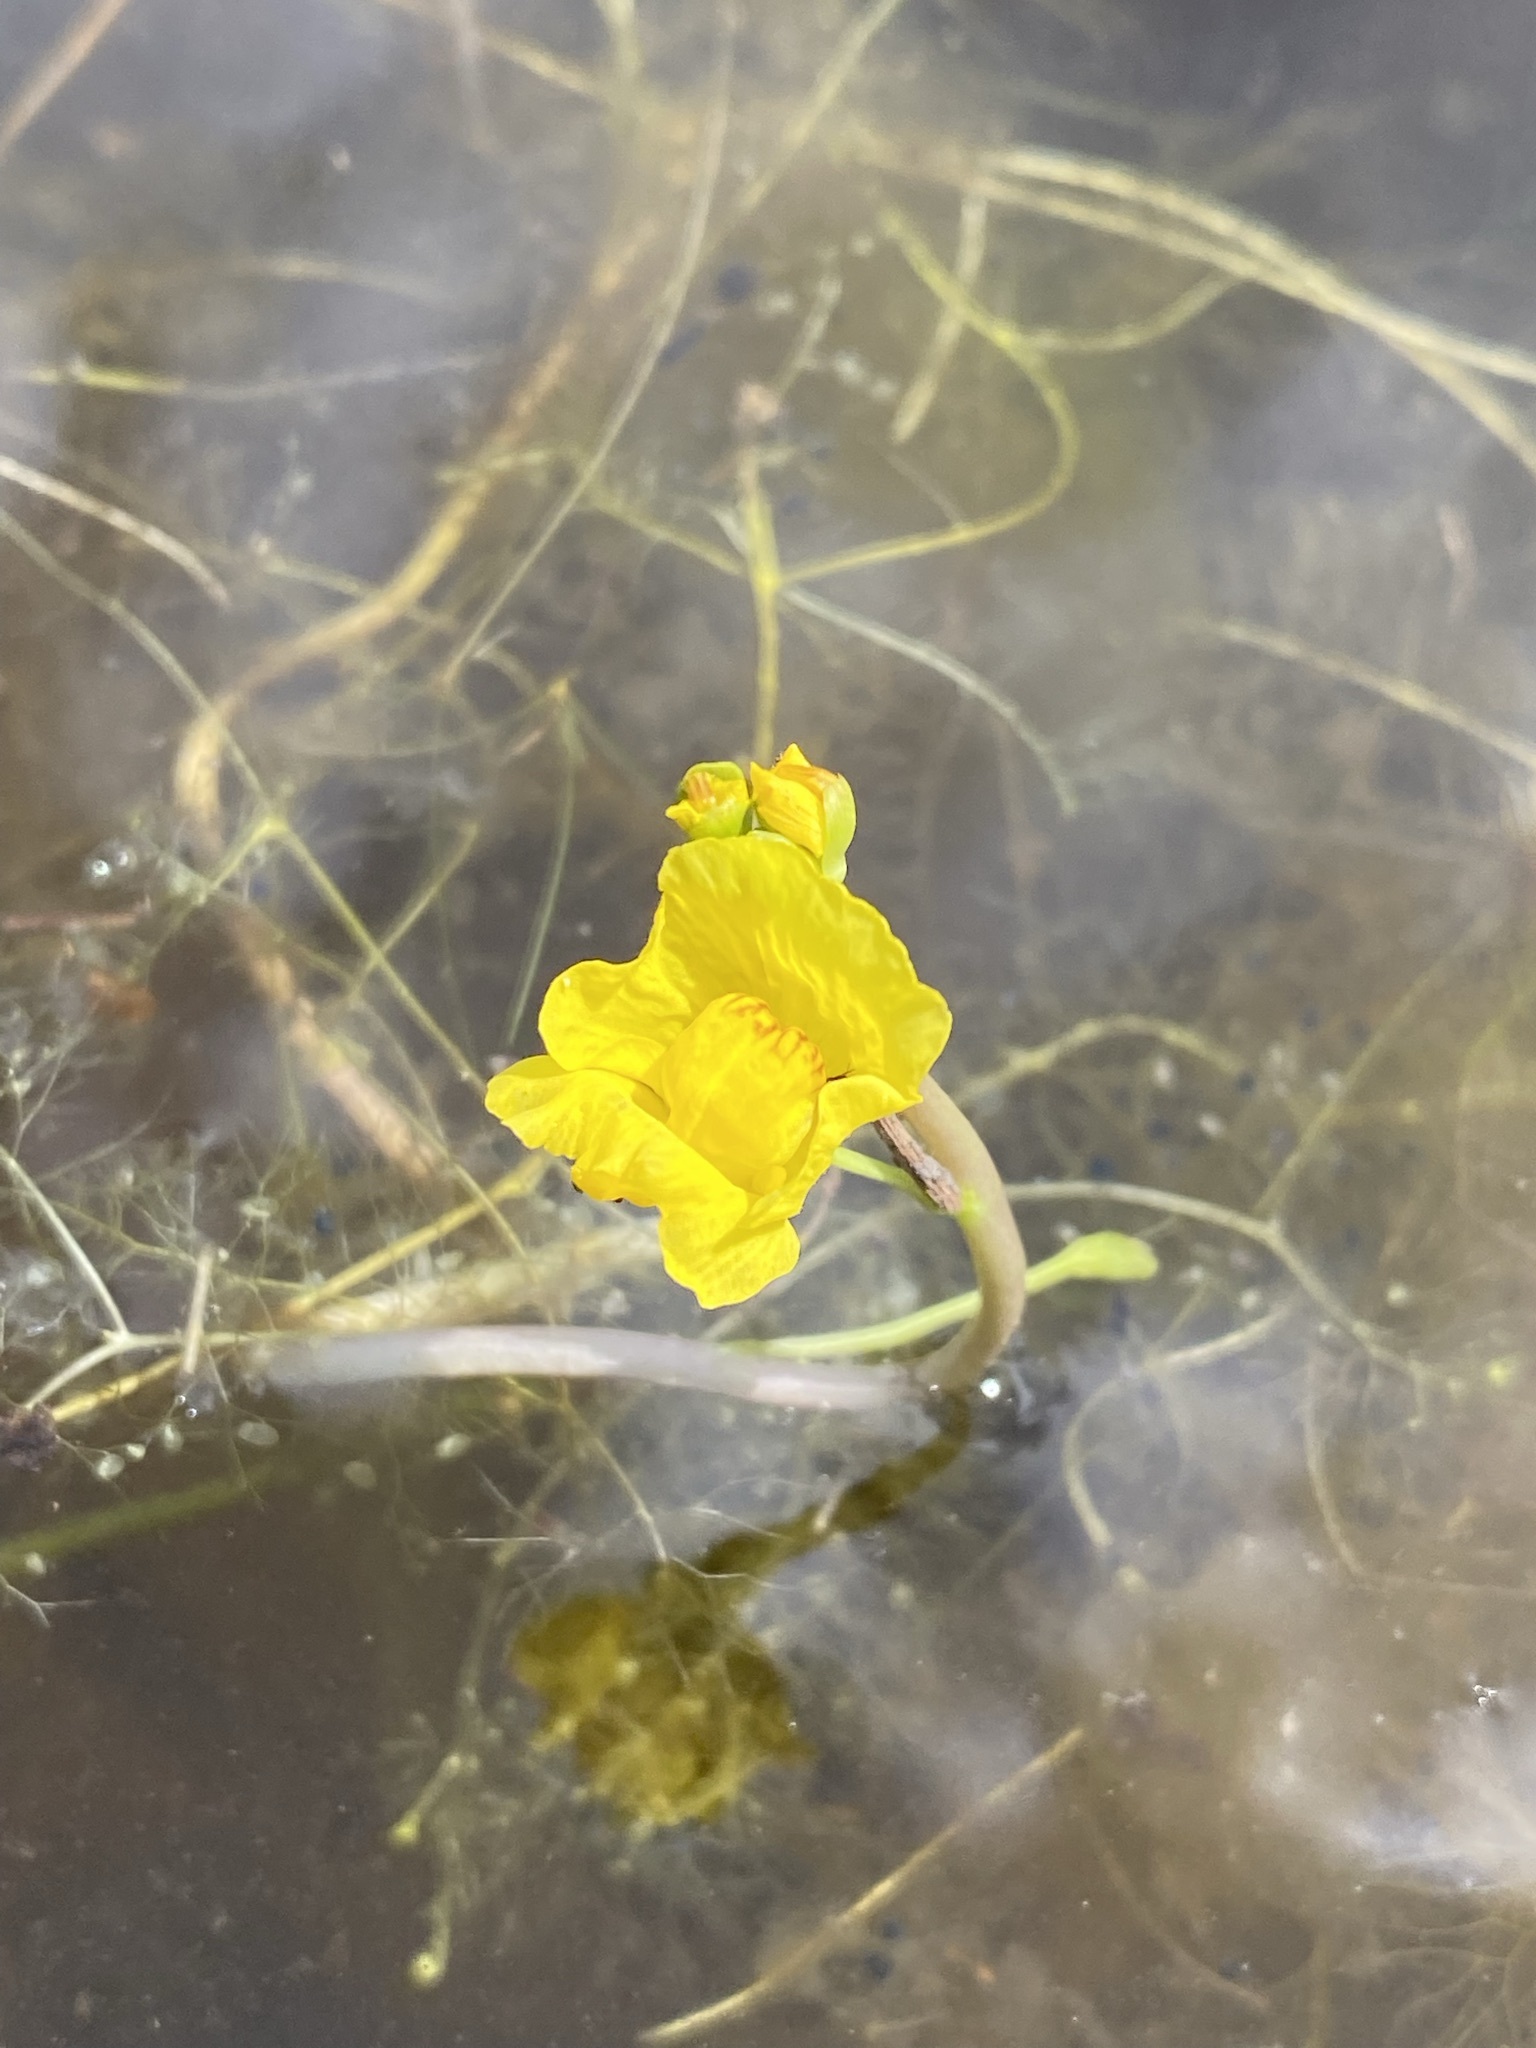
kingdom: Plantae
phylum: Tracheophyta
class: Magnoliopsida
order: Lamiales
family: Lentibulariaceae
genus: Utricularia
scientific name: Utricularia floridana
